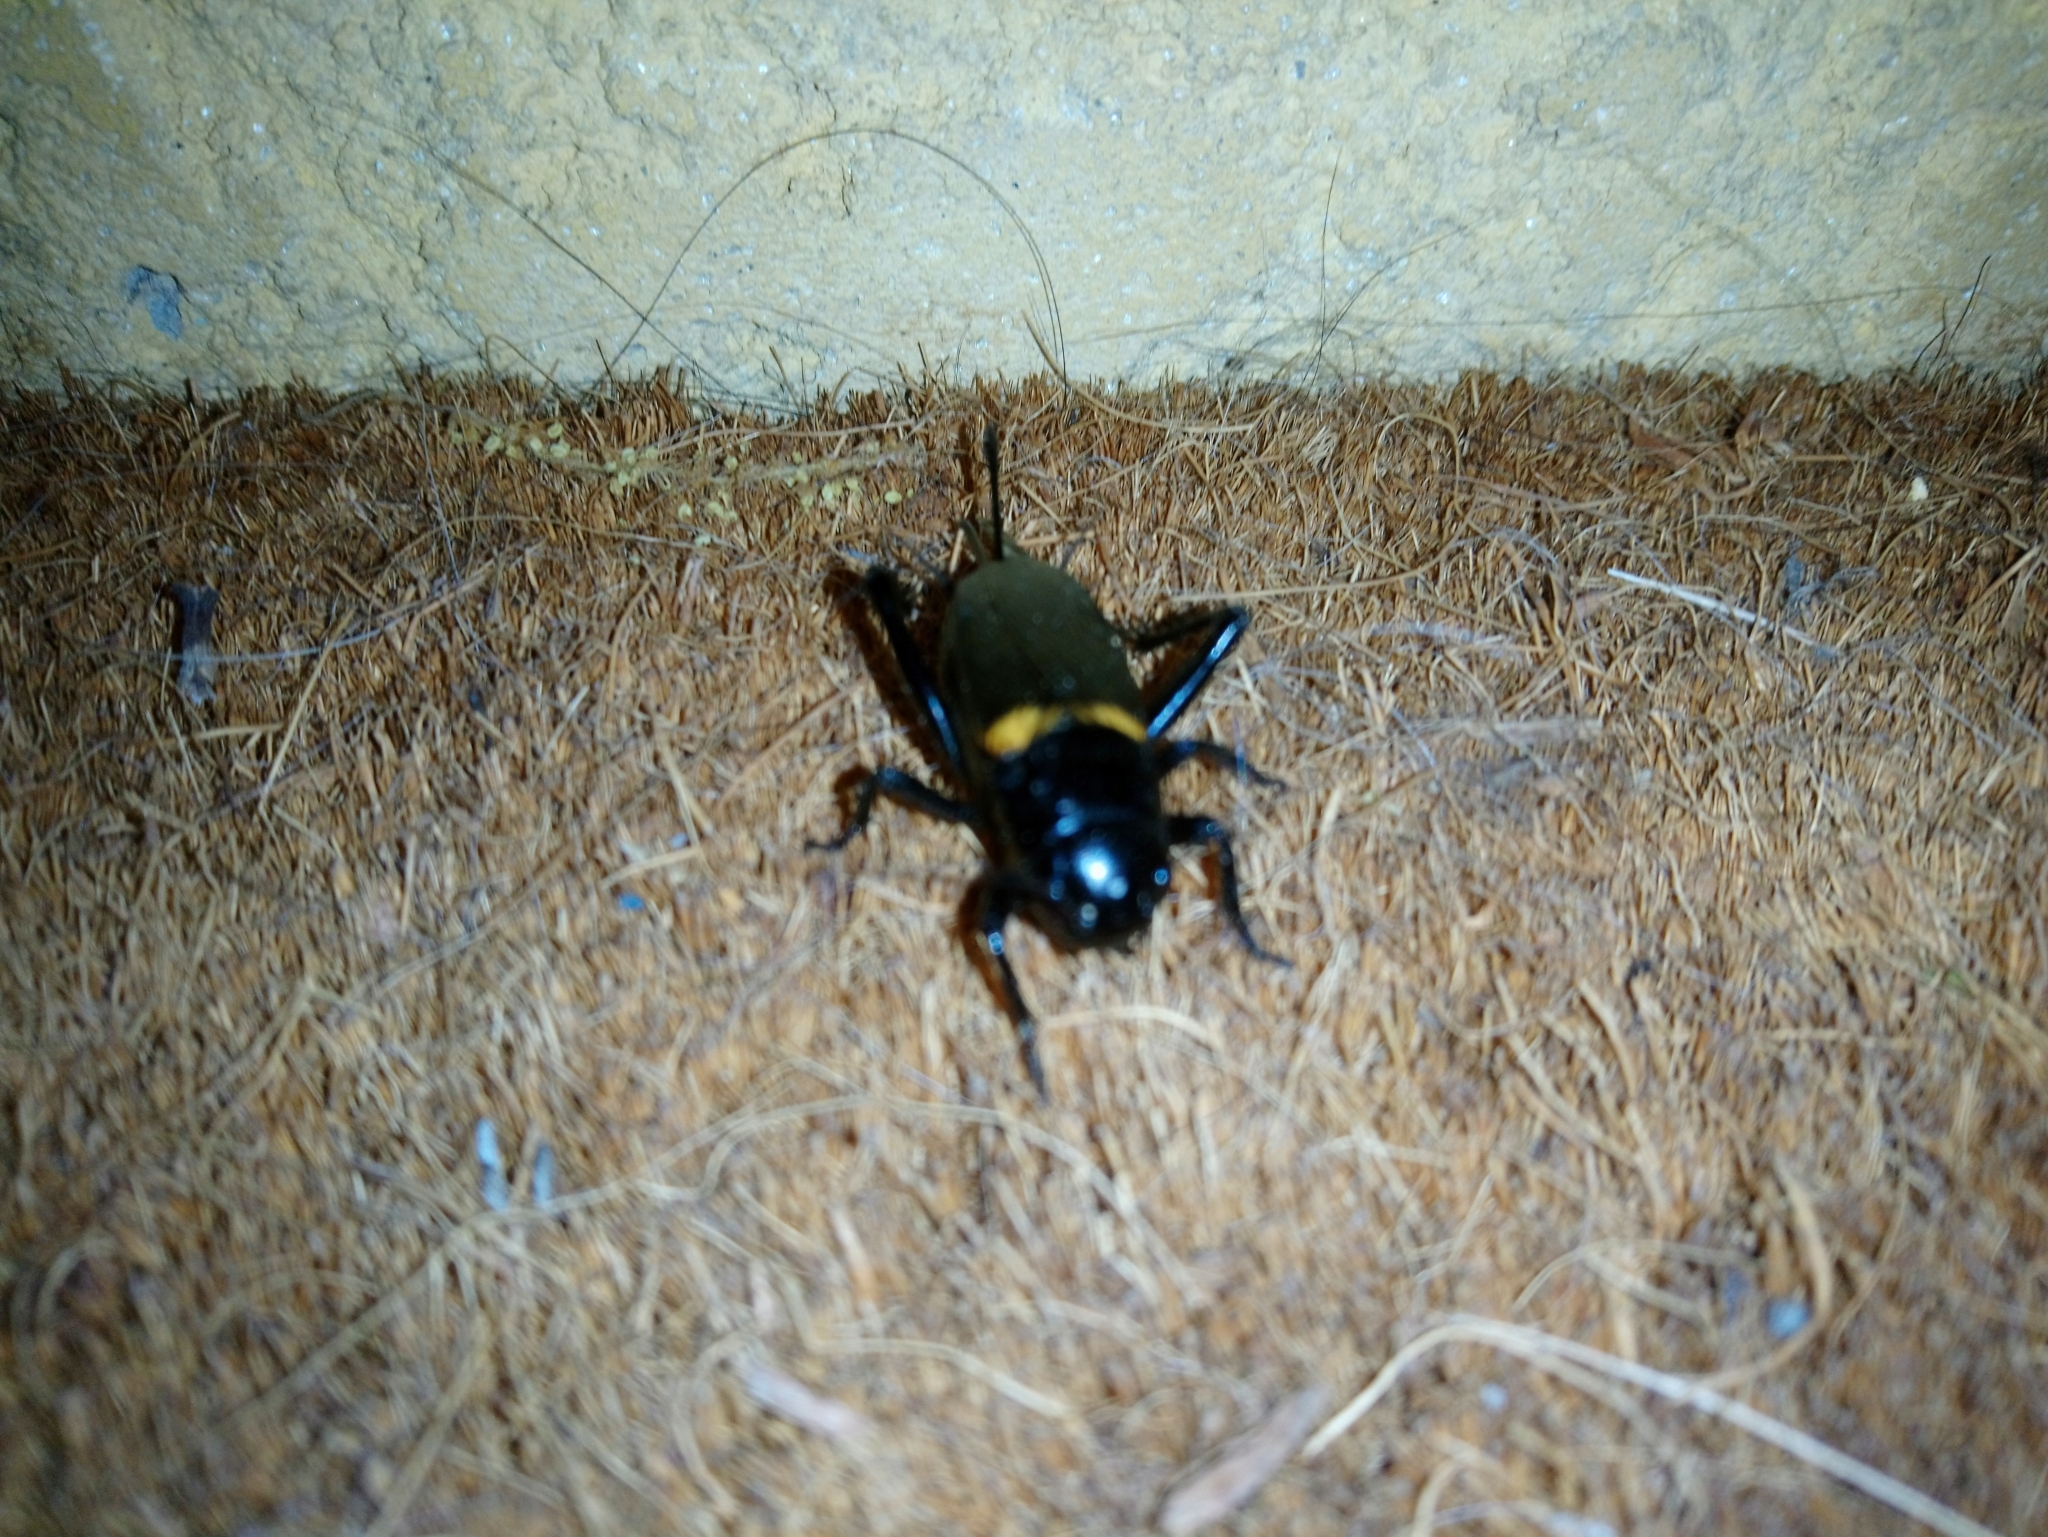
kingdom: Animalia
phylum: Arthropoda
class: Insecta
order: Orthoptera
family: Gryllidae
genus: Gryllus
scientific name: Gryllus bimaculatus
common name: Two-spotted cricket
